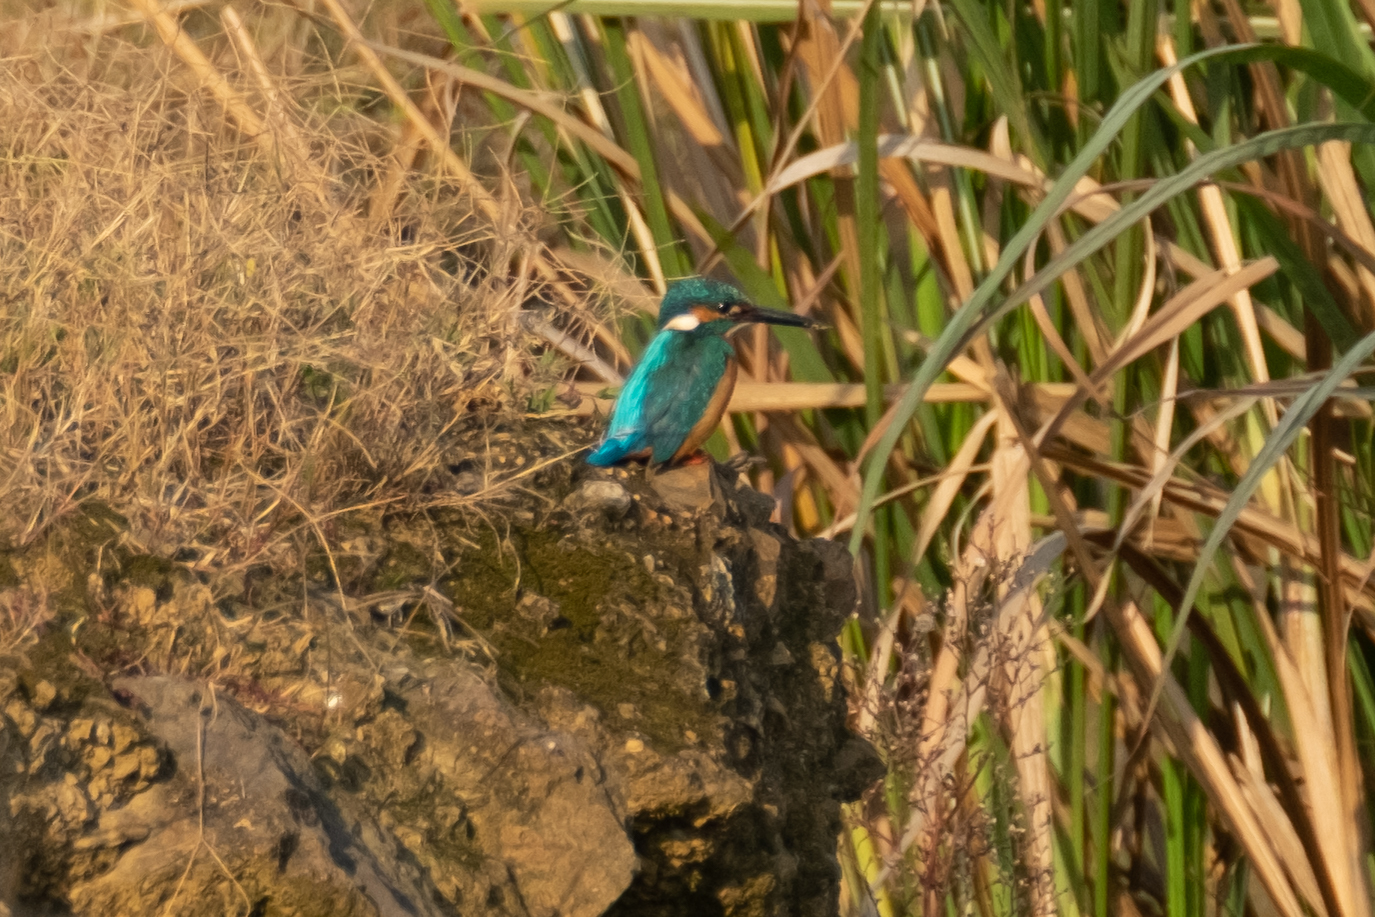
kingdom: Animalia
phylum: Chordata
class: Aves
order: Coraciiformes
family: Alcedinidae
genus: Alcedo
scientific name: Alcedo atthis
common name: Common kingfisher
